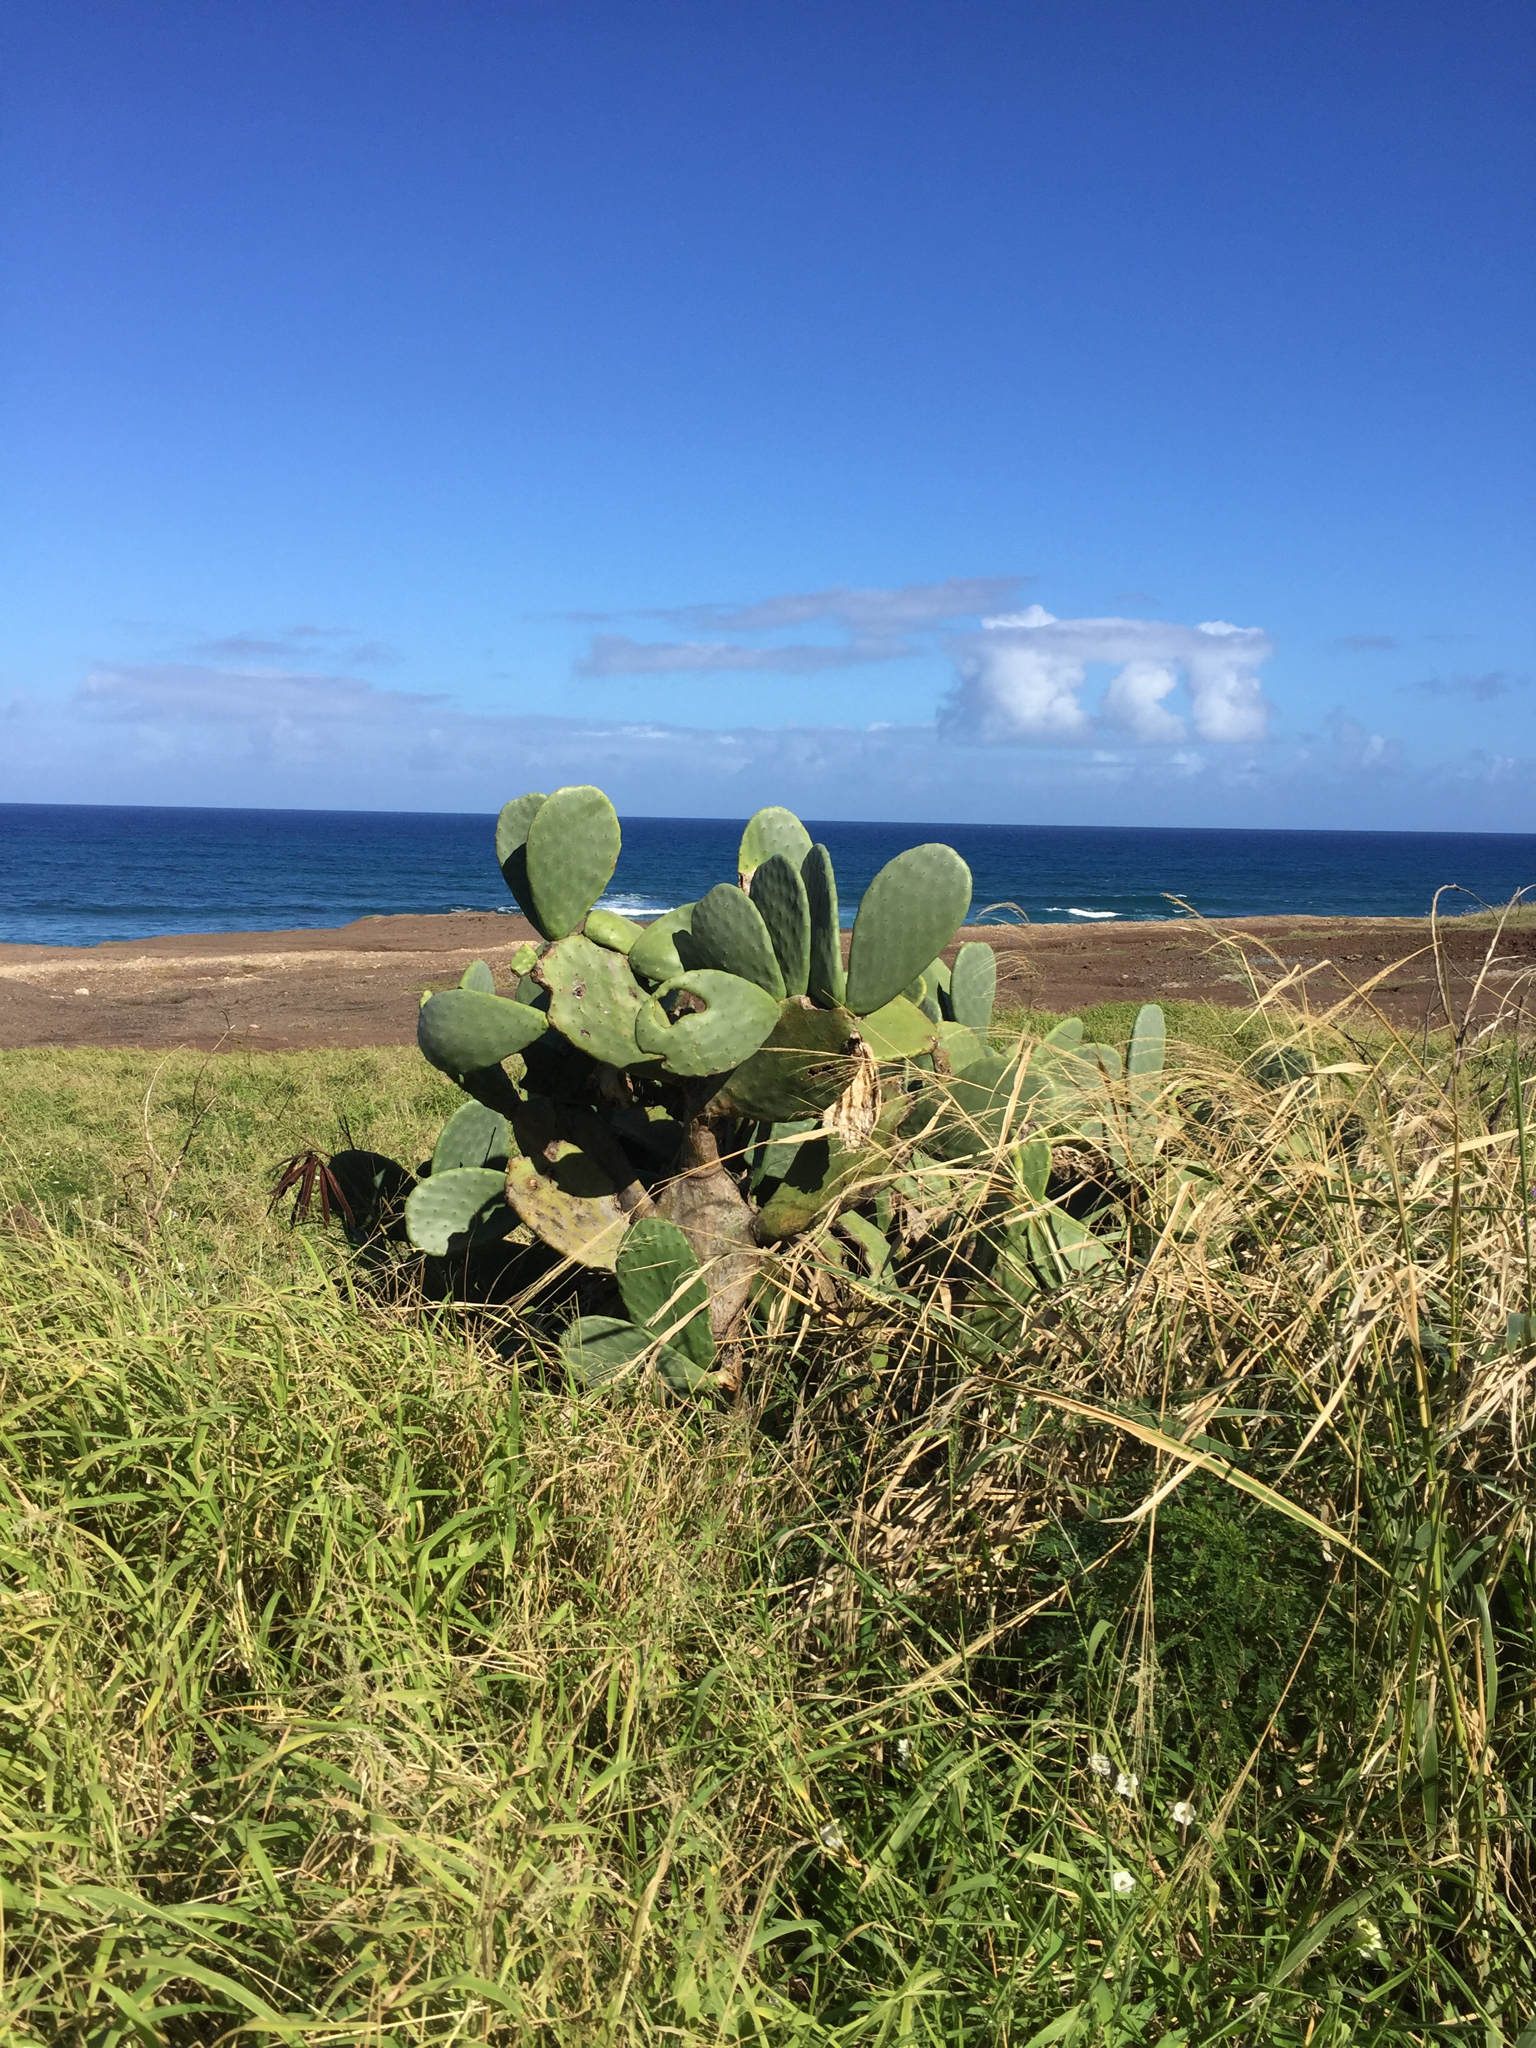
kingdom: Plantae
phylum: Tracheophyta
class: Magnoliopsida
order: Caryophyllales
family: Cactaceae
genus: Opuntia
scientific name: Opuntia ficus-indica
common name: Barbary fig
